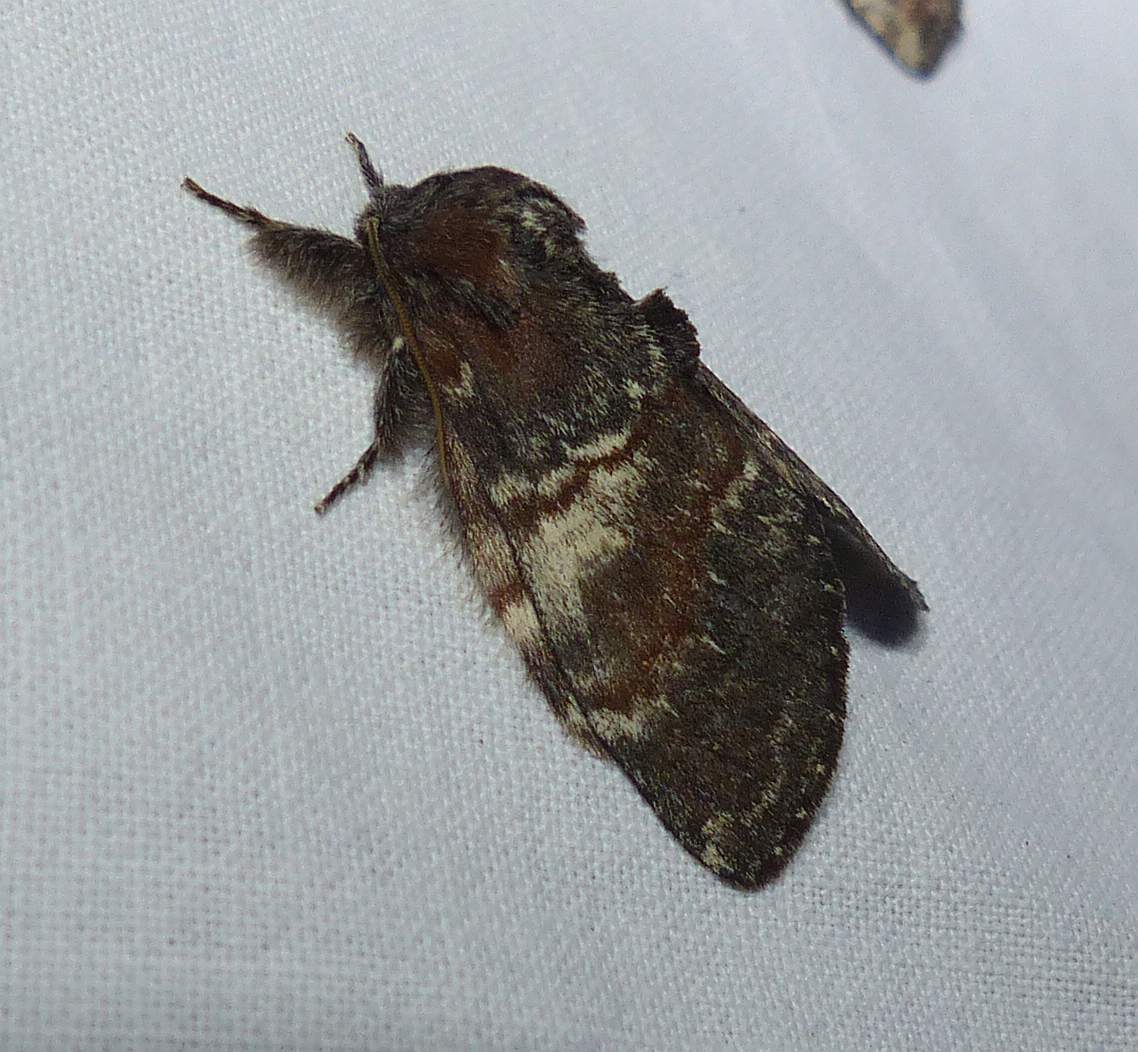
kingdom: Animalia
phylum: Arthropoda
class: Insecta
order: Lepidoptera
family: Notodontidae
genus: Peridea
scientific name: Peridea ferruginea
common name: Chocolate prominent
